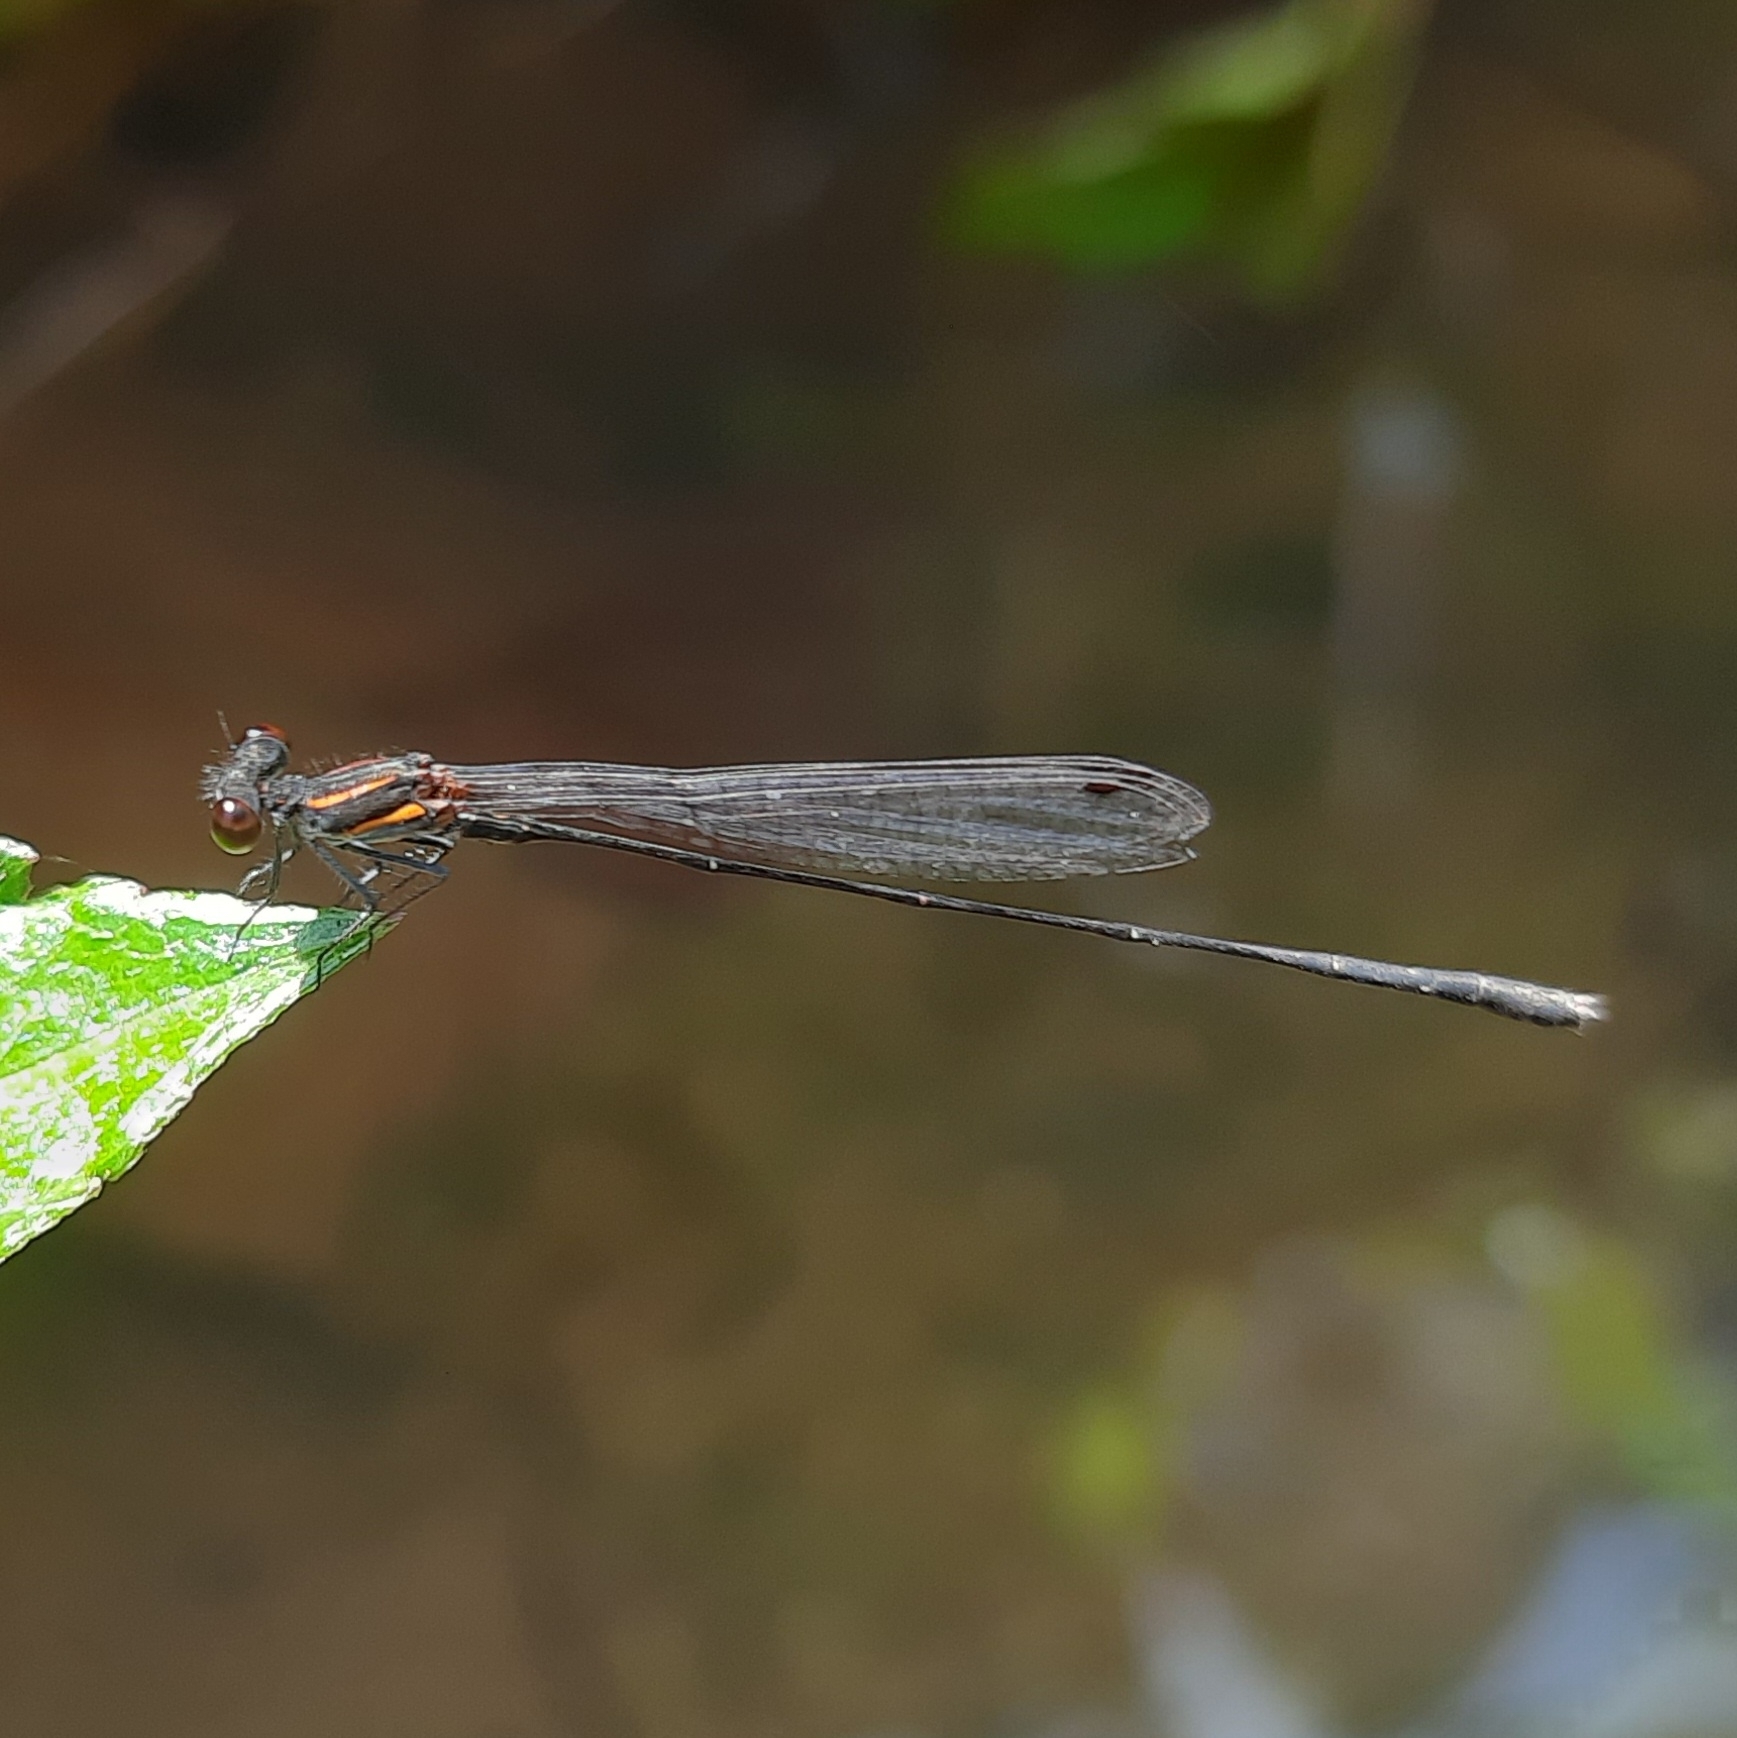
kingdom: Animalia
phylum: Arthropoda
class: Insecta
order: Odonata
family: Platycnemididae
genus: Prodasineura
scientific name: Prodasineura verticalis
